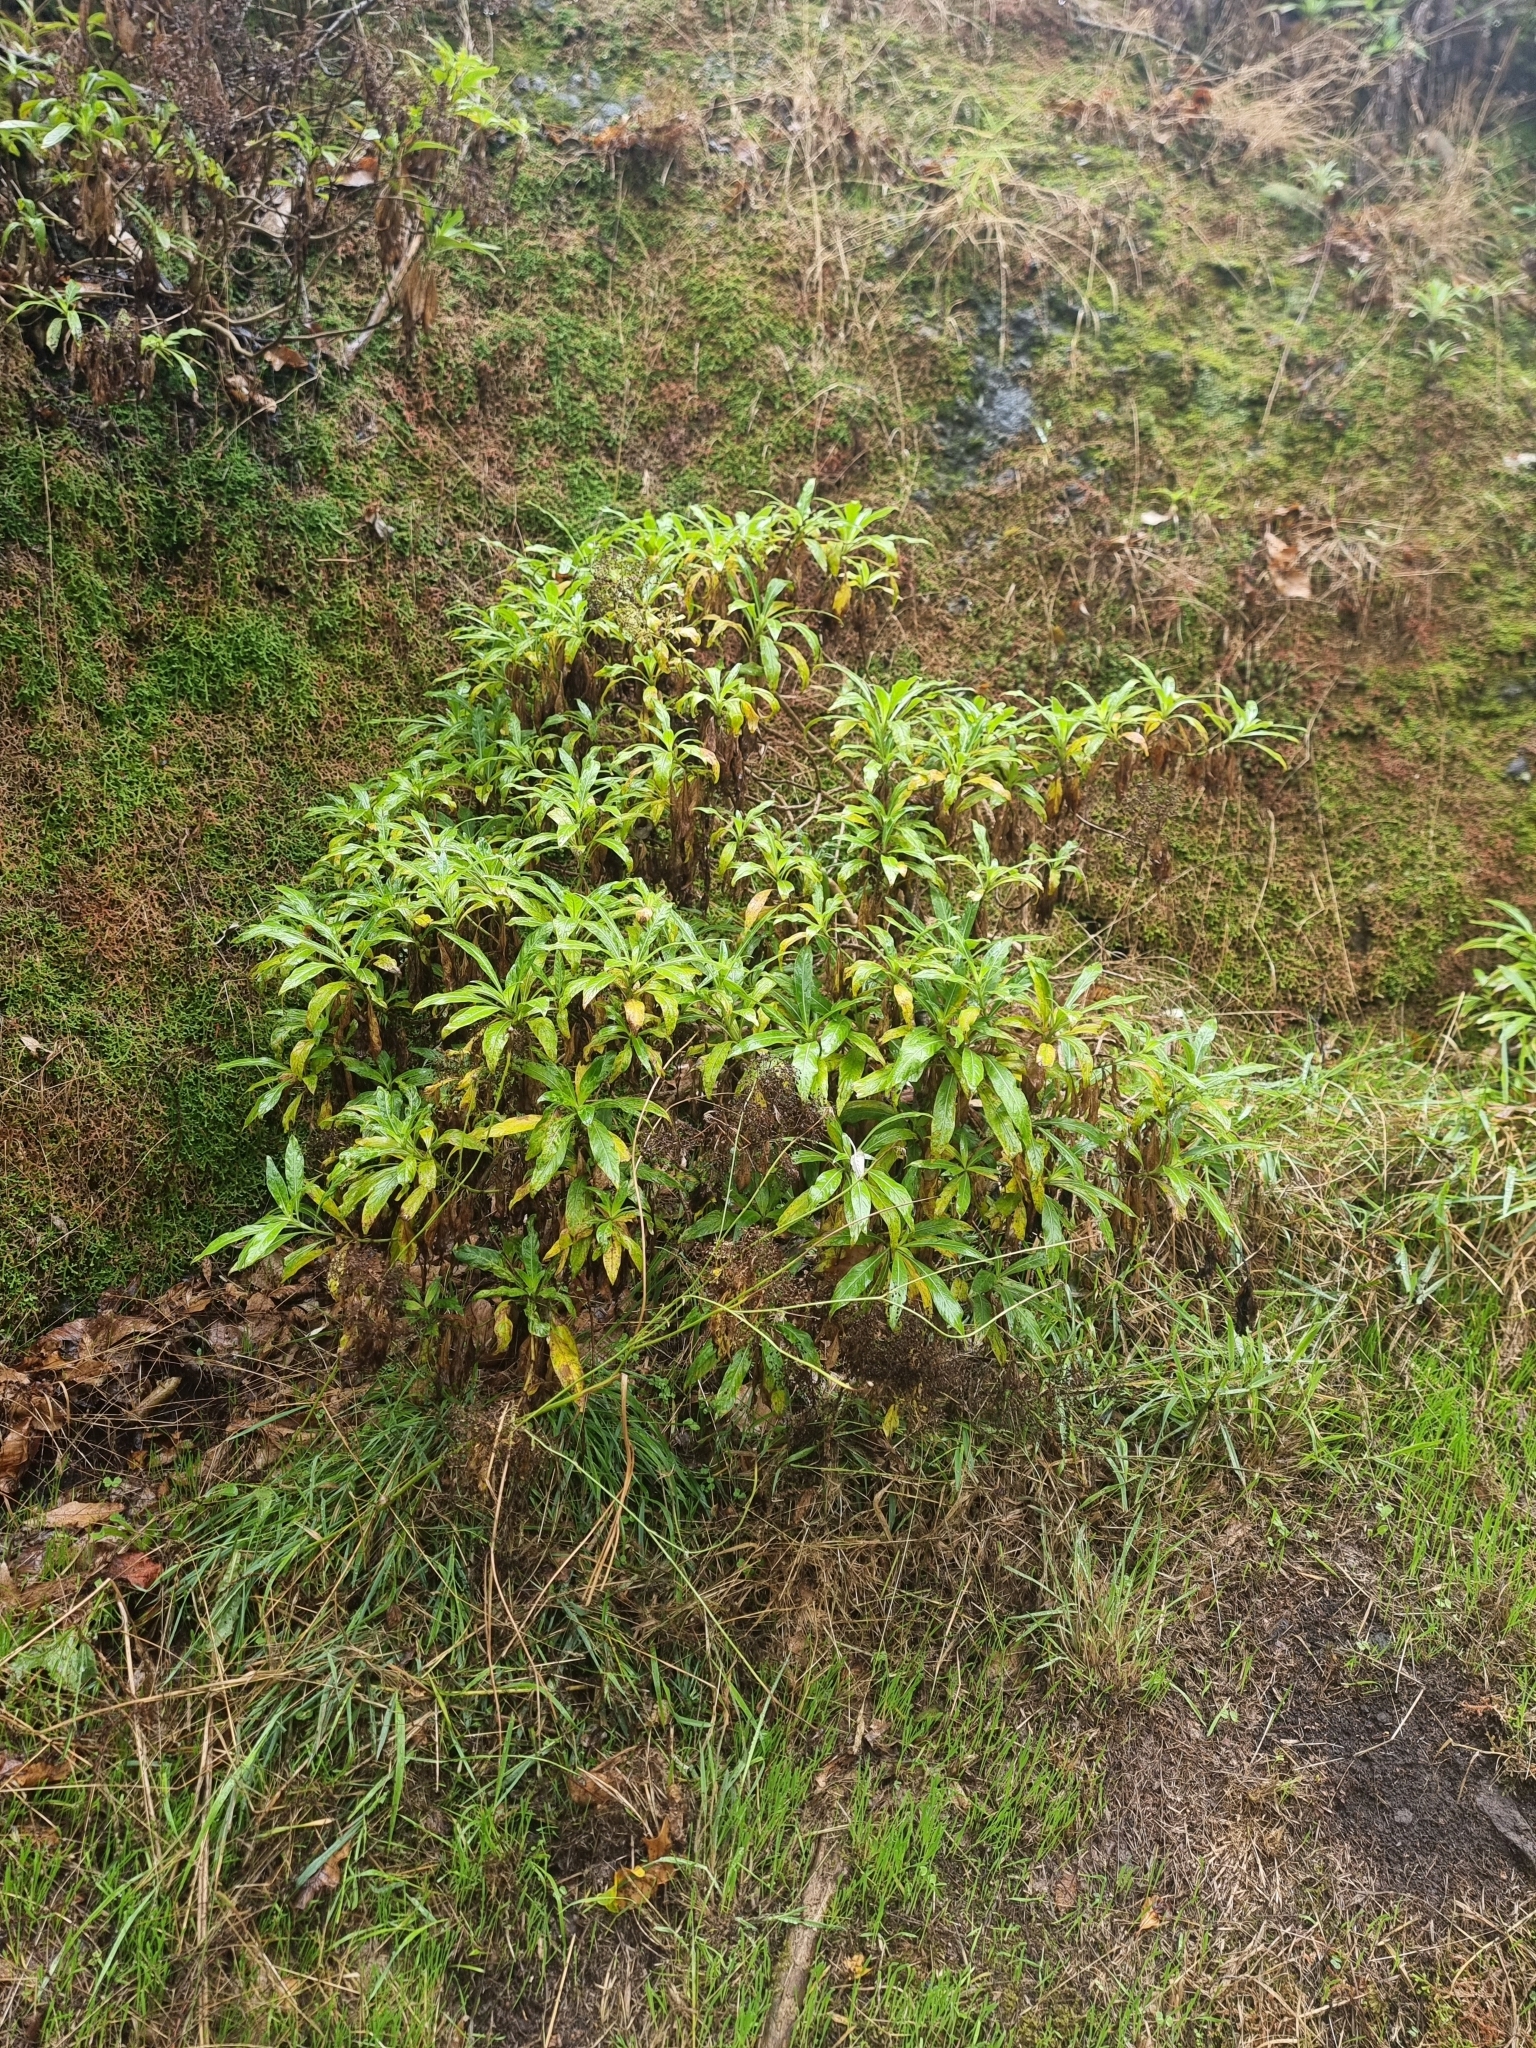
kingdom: Plantae
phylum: Tracheophyta
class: Magnoliopsida
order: Gentianales
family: Rubiaceae
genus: Phyllis
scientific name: Phyllis nobla
